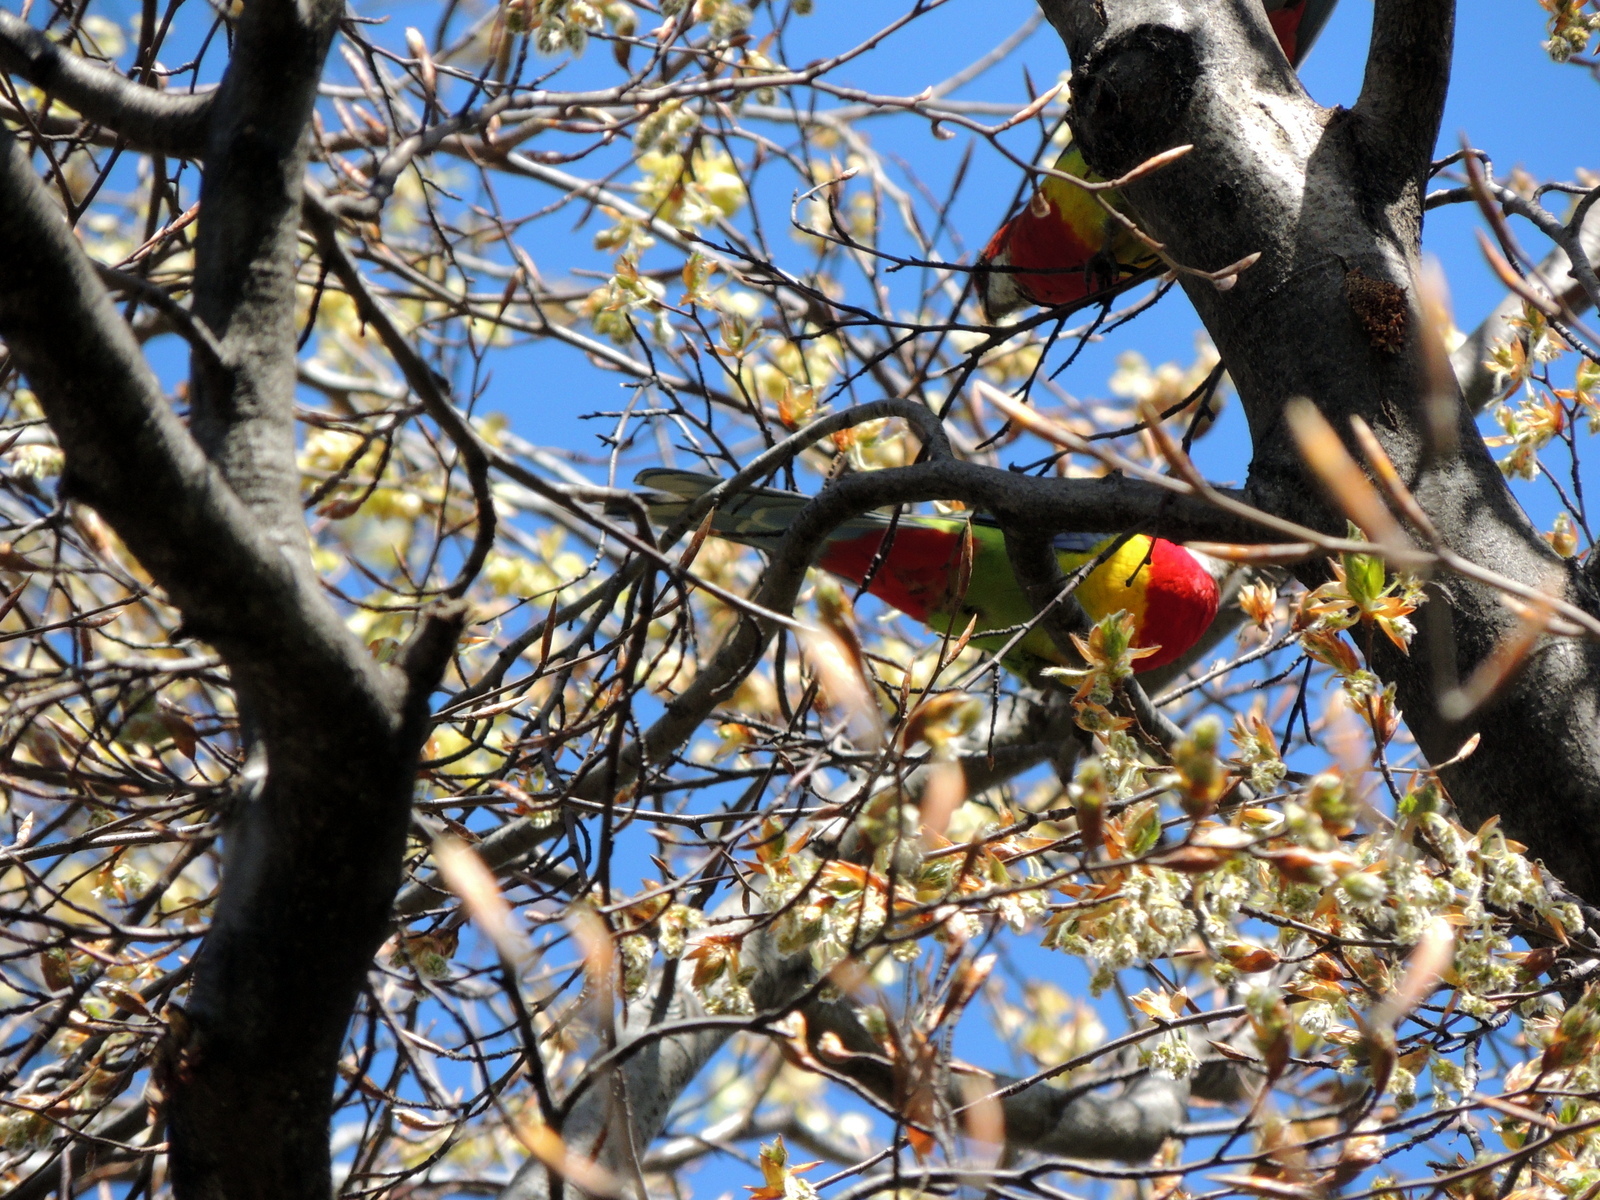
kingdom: Animalia
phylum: Chordata
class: Aves
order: Psittaciformes
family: Psittacidae
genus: Platycercus
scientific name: Platycercus eximius
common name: Eastern rosella
